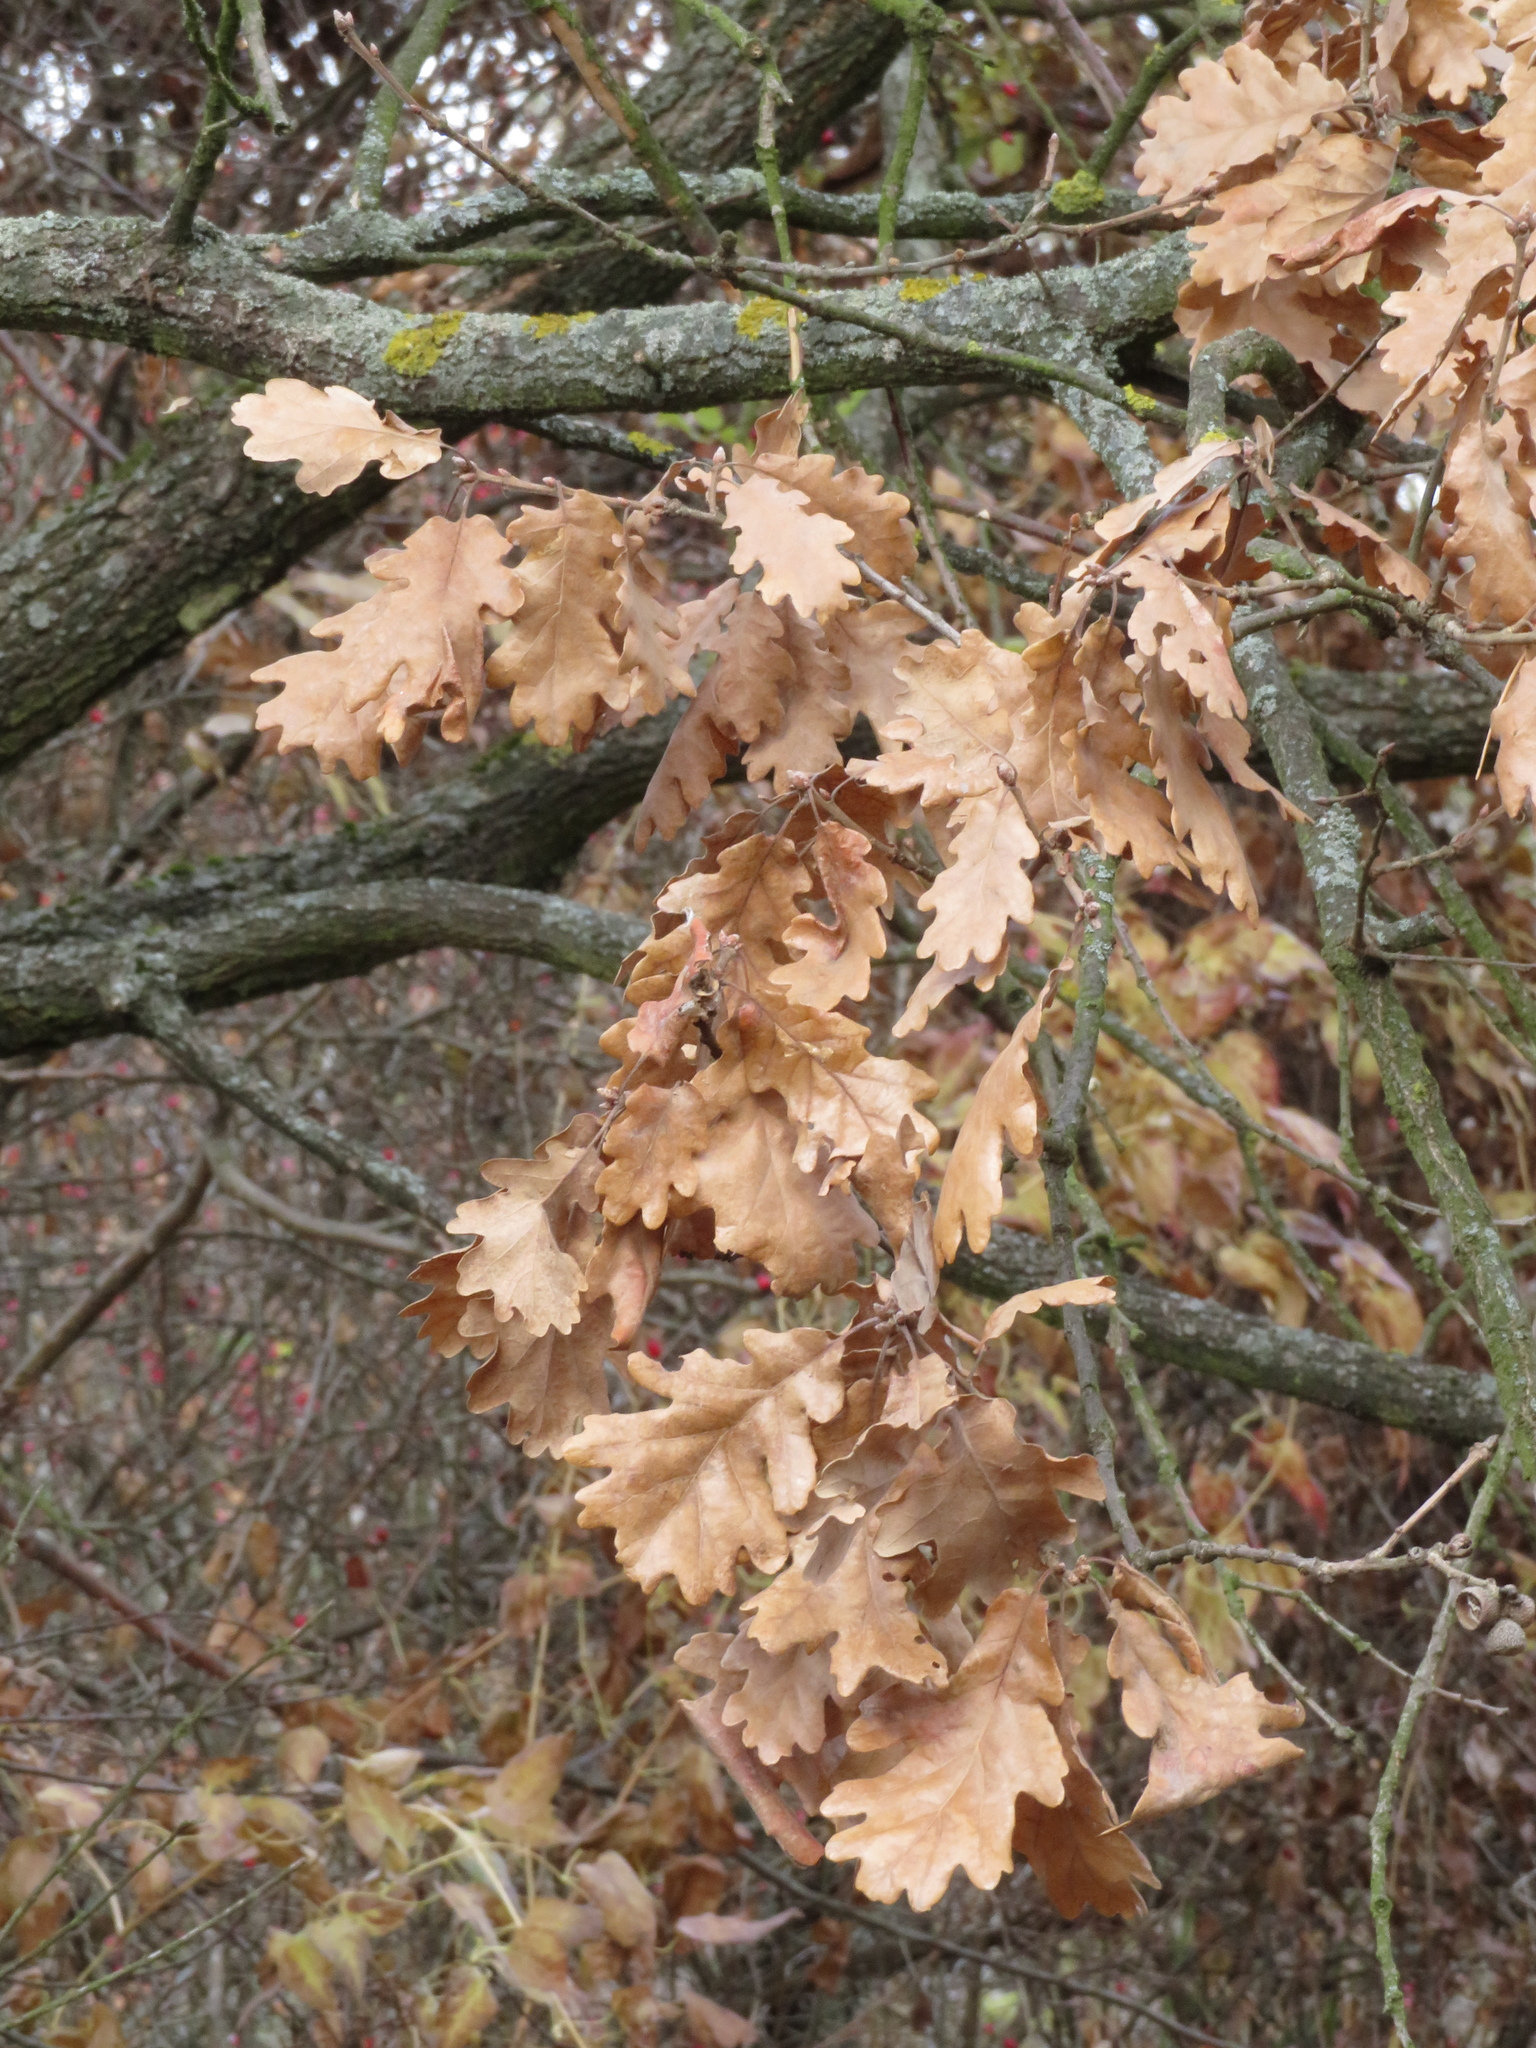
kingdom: Plantae
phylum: Tracheophyta
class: Magnoliopsida
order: Fagales
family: Fagaceae
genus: Quercus
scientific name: Quercus petraea
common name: Sessile oak
